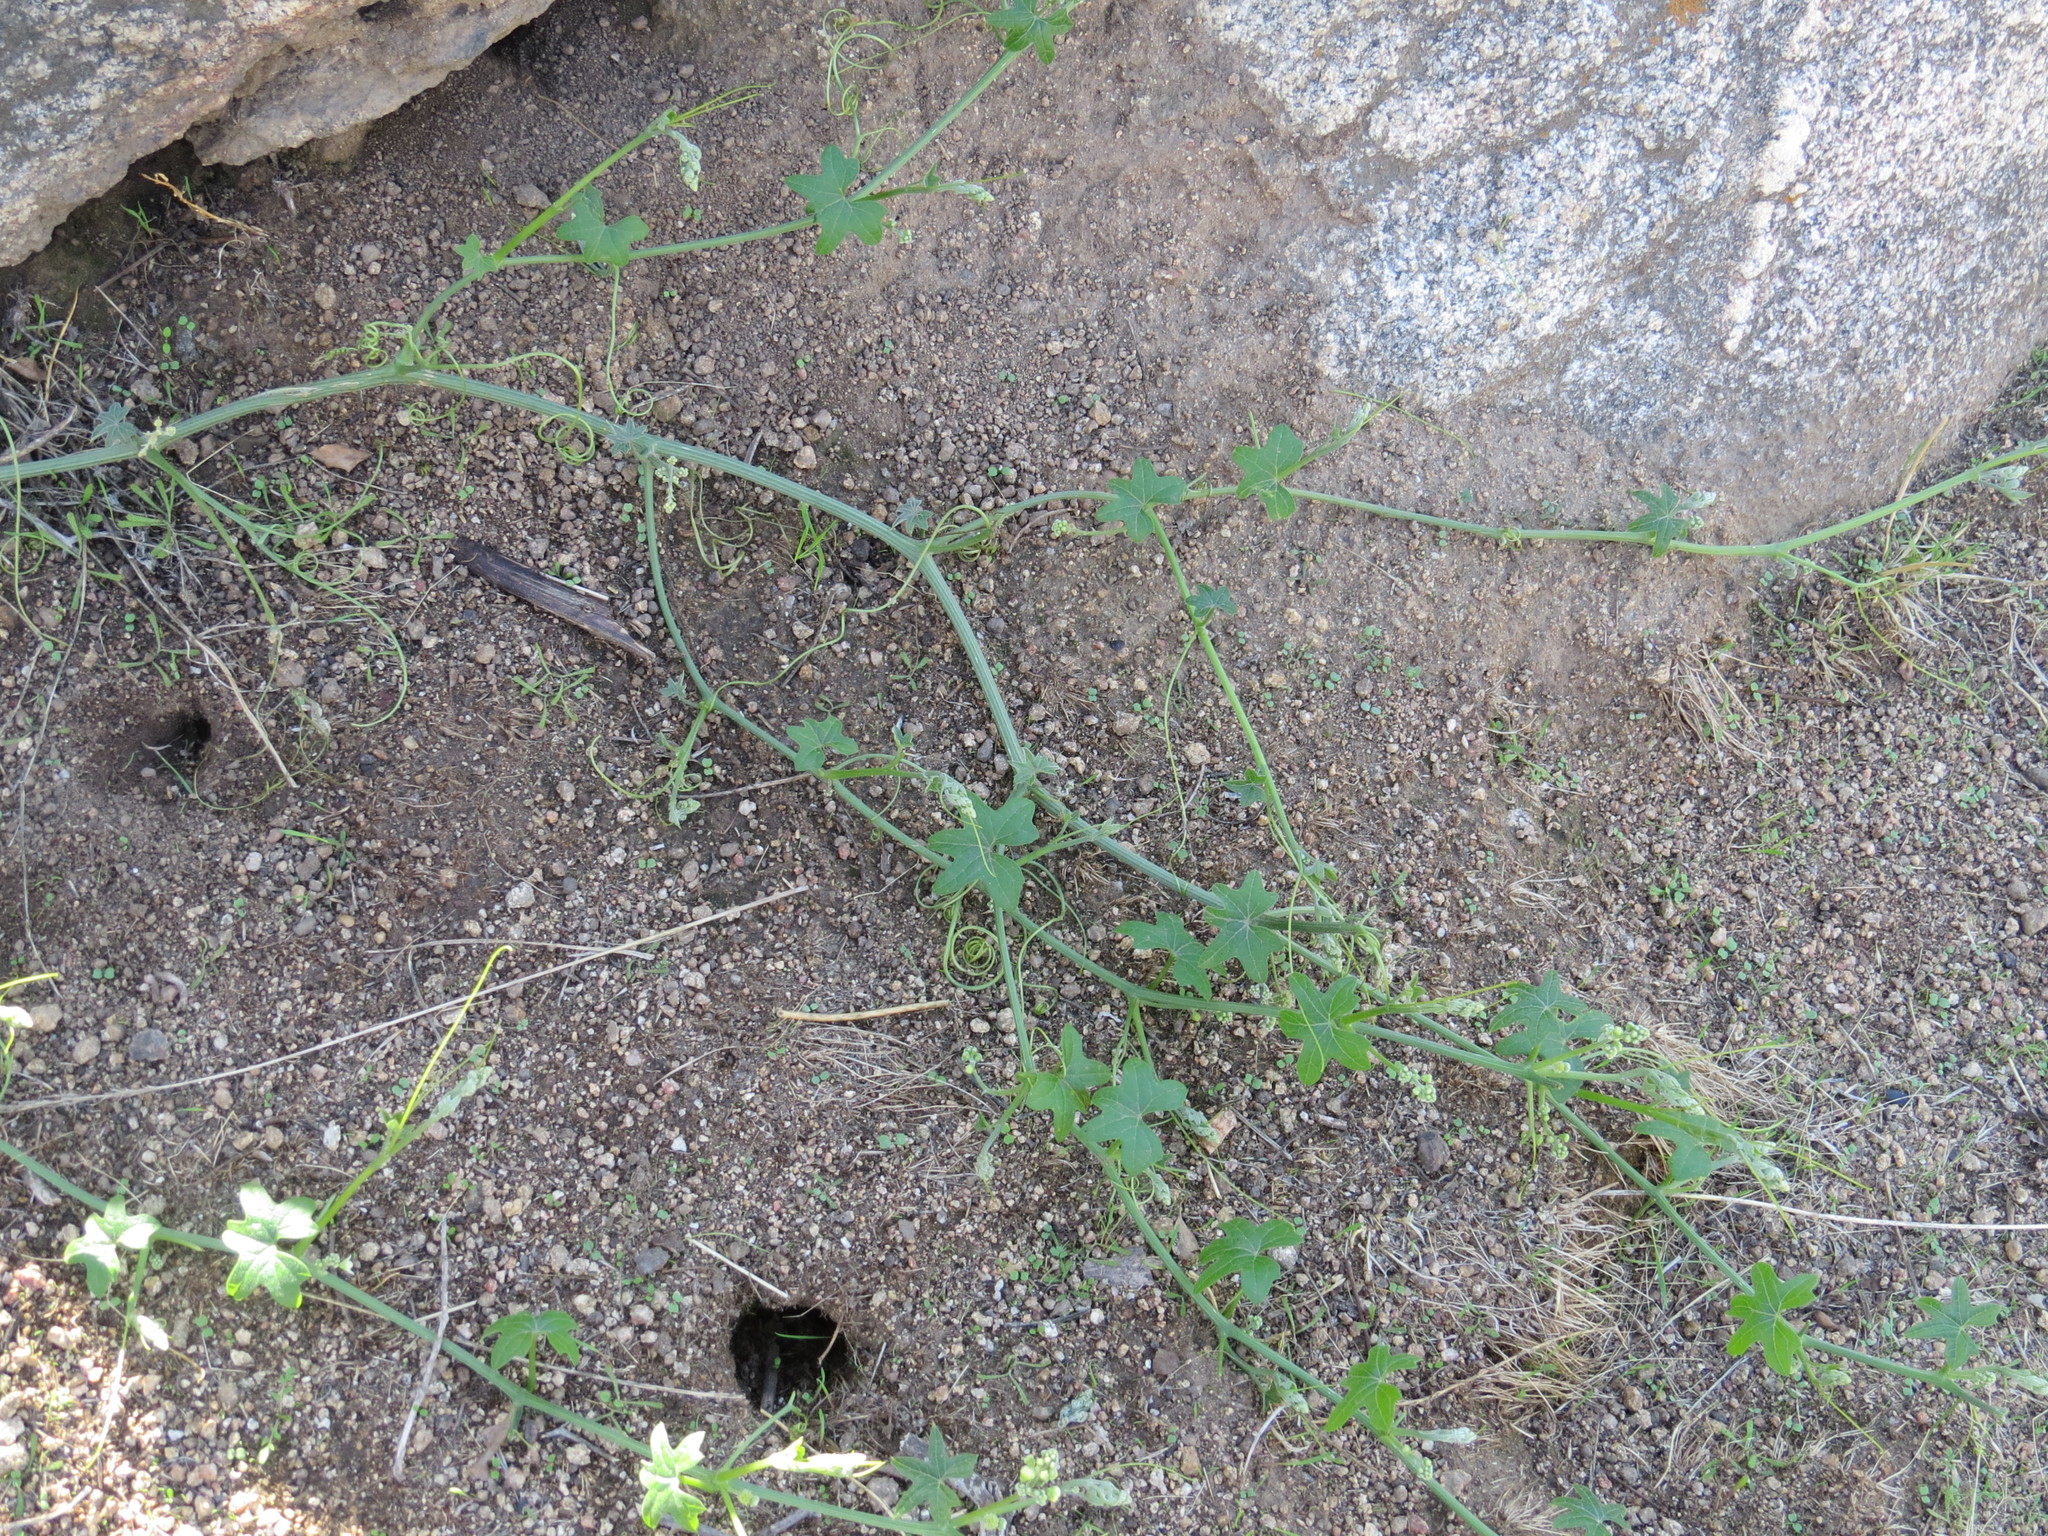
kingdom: Plantae
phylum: Tracheophyta
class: Magnoliopsida
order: Cucurbitales
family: Cucurbitaceae
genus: Marah
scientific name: Marah macrocarpa
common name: Cucamonga manroot
